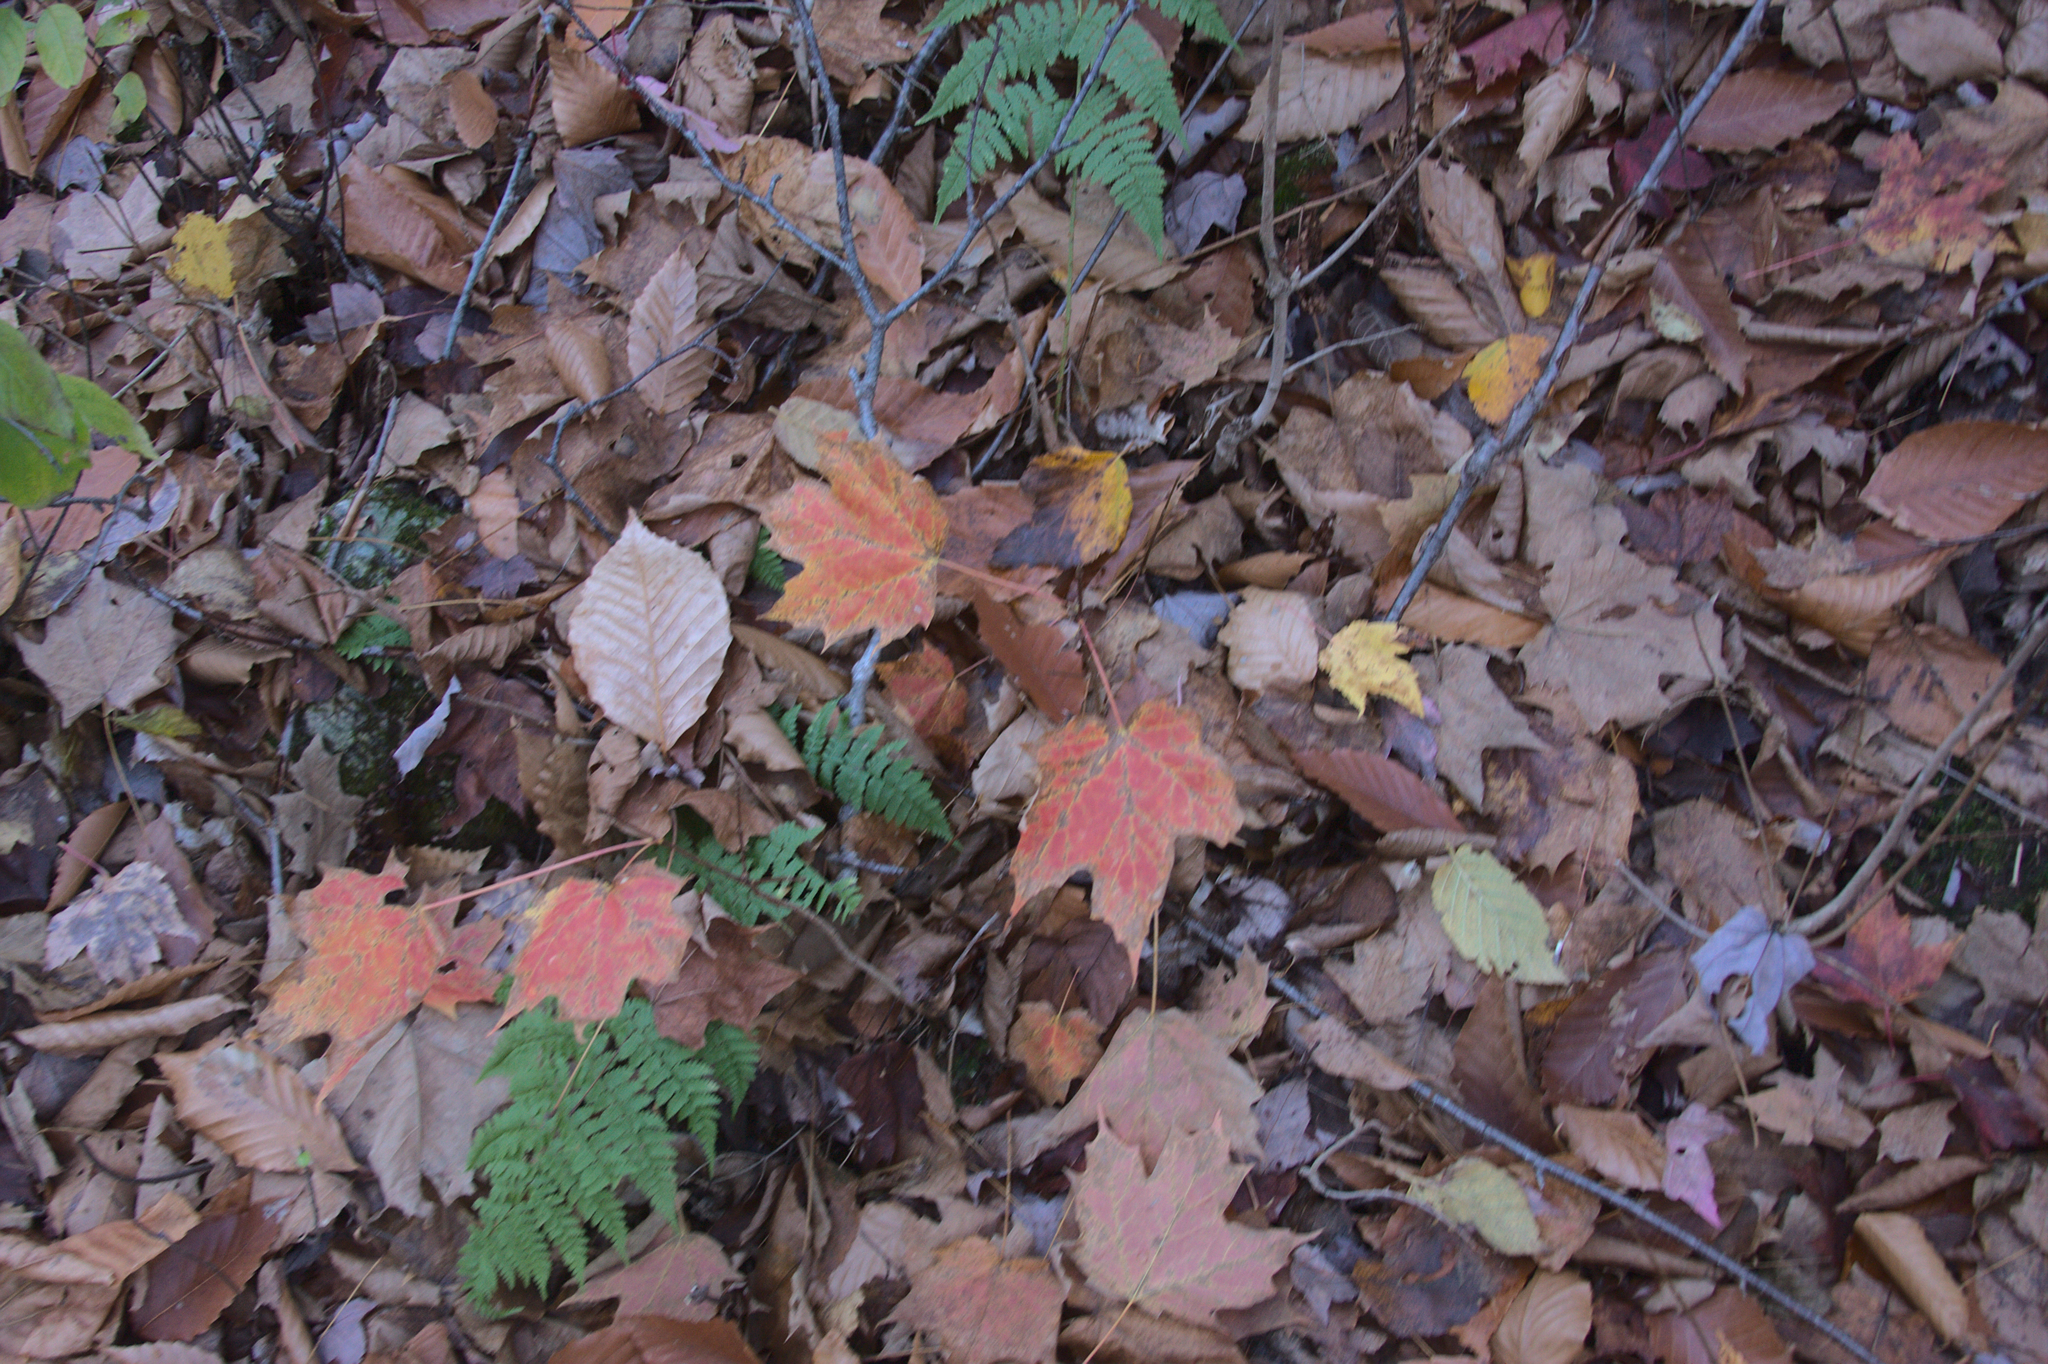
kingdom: Plantae
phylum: Tracheophyta
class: Magnoliopsida
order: Sapindales
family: Sapindaceae
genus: Acer
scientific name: Acer saccharum
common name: Sugar maple
